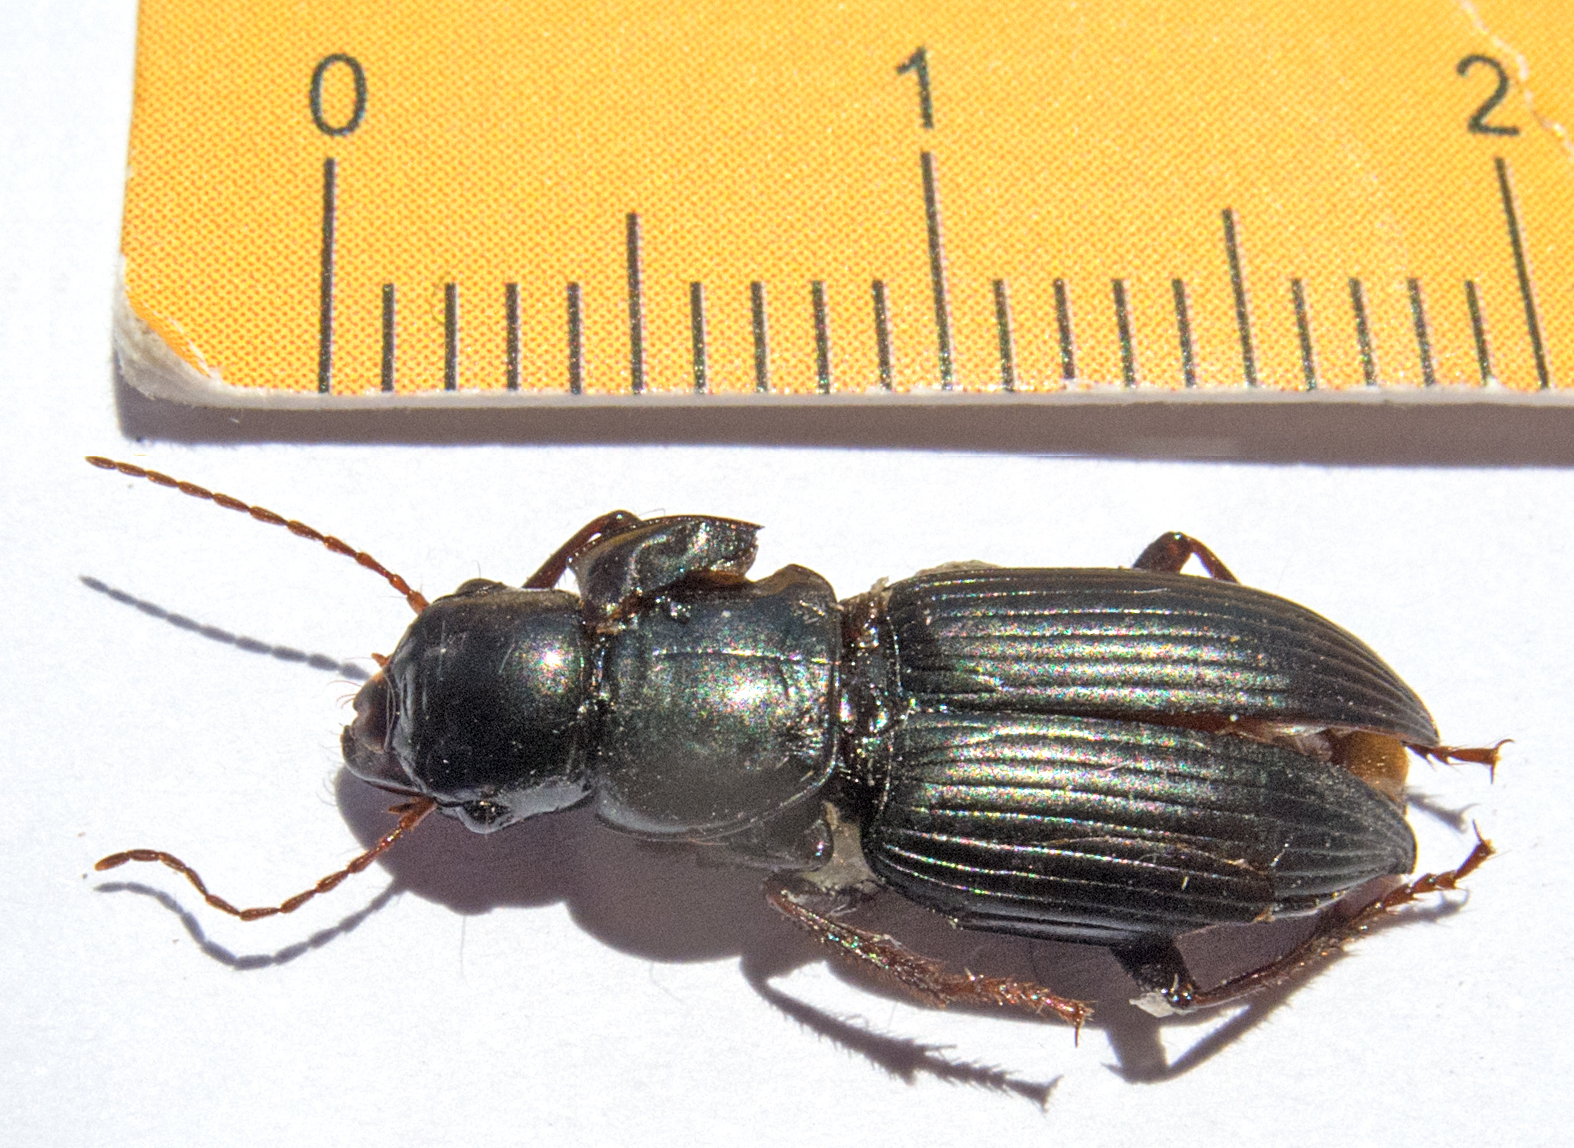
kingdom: Animalia
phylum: Arthropoda
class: Insecta
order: Coleoptera
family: Carabidae
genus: Acinopus
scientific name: Acinopus megacephalus
